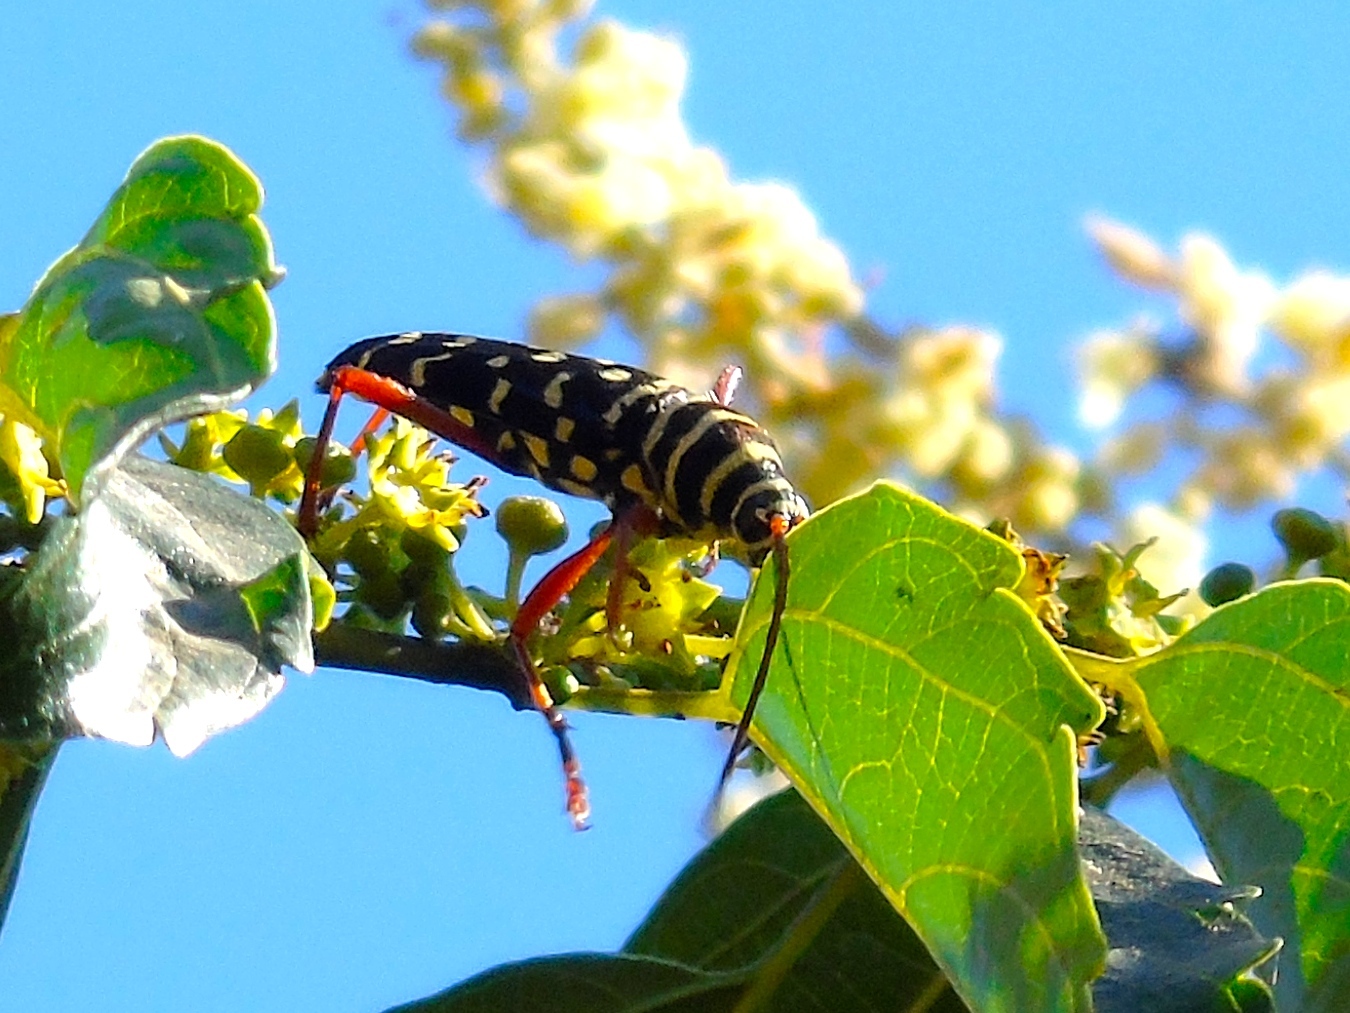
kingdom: Animalia
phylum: Arthropoda
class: Insecta
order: Coleoptera
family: Cerambycidae
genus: Placosternus
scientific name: Placosternus erythropus
